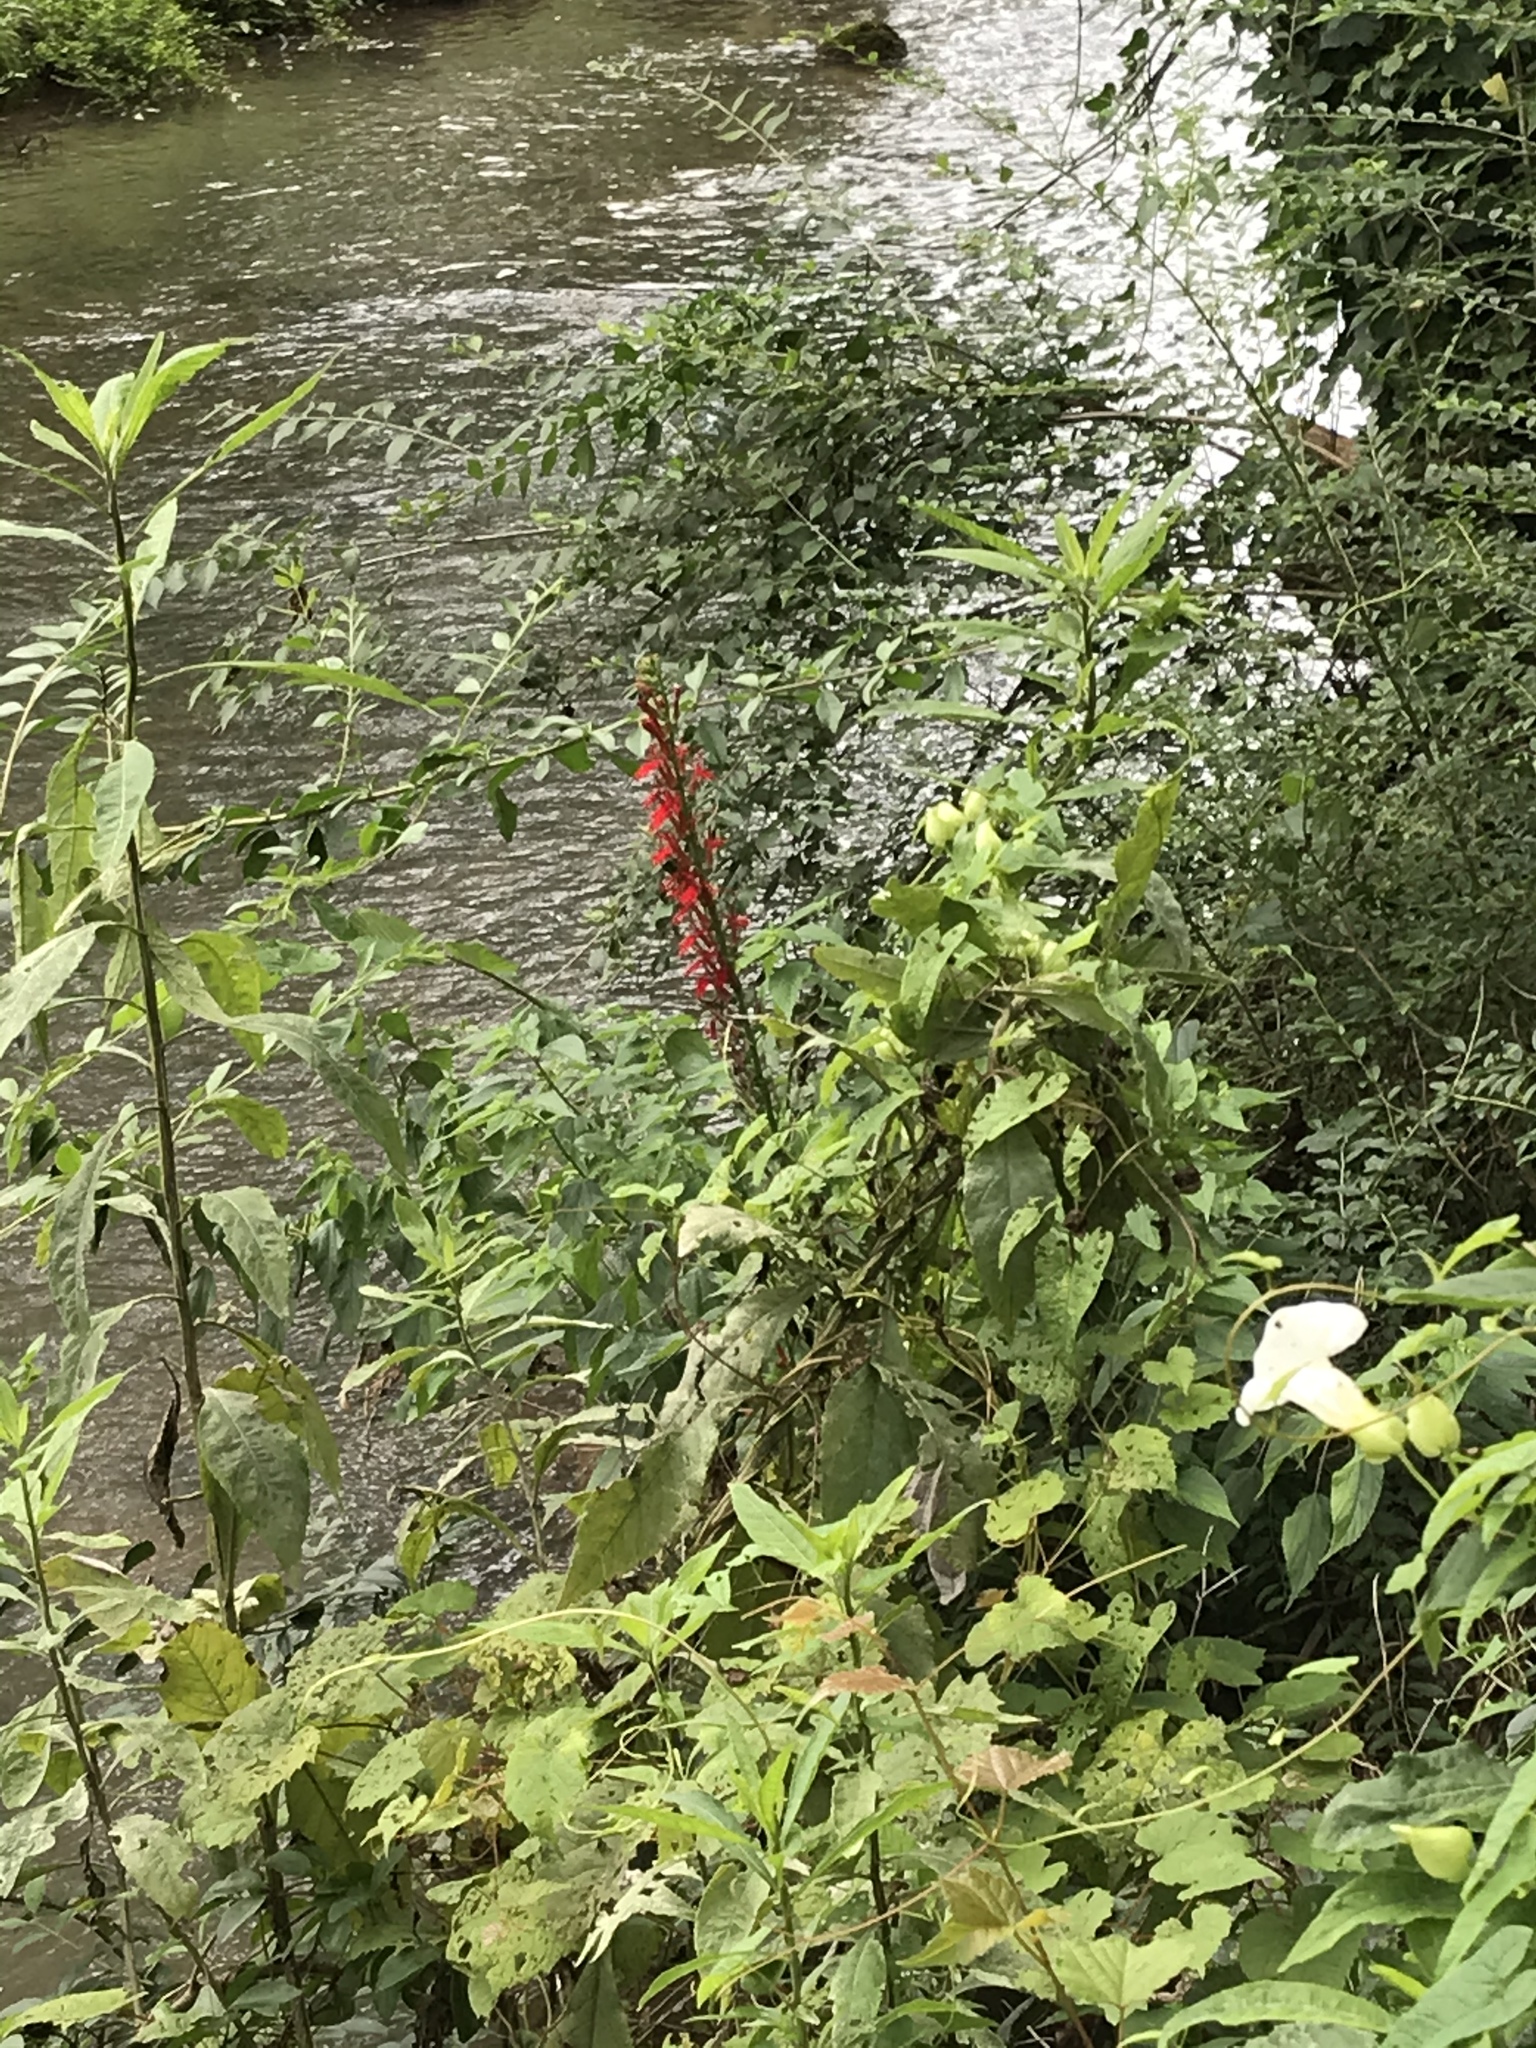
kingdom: Plantae
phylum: Tracheophyta
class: Magnoliopsida
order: Asterales
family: Campanulaceae
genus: Lobelia
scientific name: Lobelia cardinalis
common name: Cardinal flower
